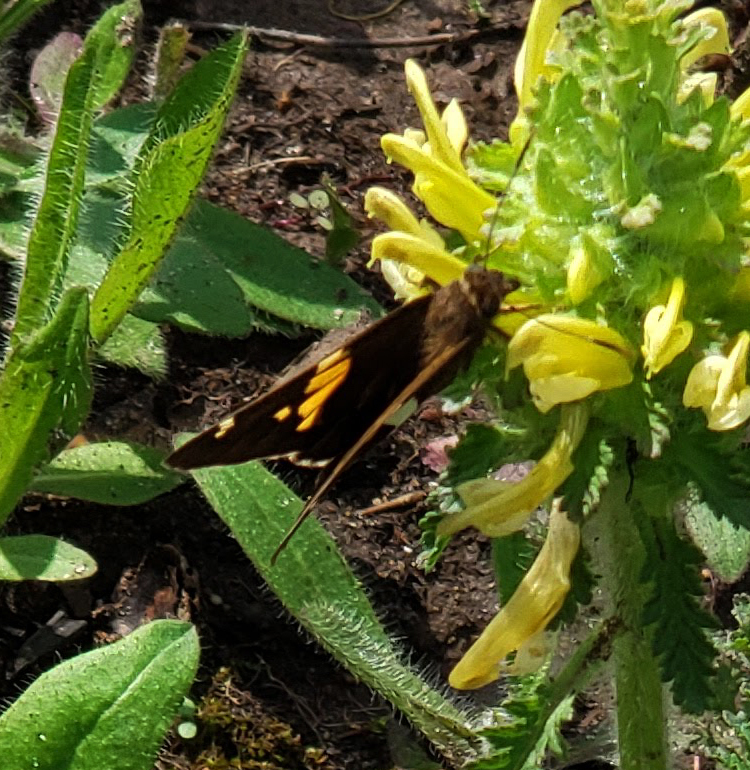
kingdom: Animalia
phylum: Arthropoda
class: Insecta
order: Lepidoptera
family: Hesperiidae
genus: Epargyreus
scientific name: Epargyreus clarus
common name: Silver-spotted skipper
